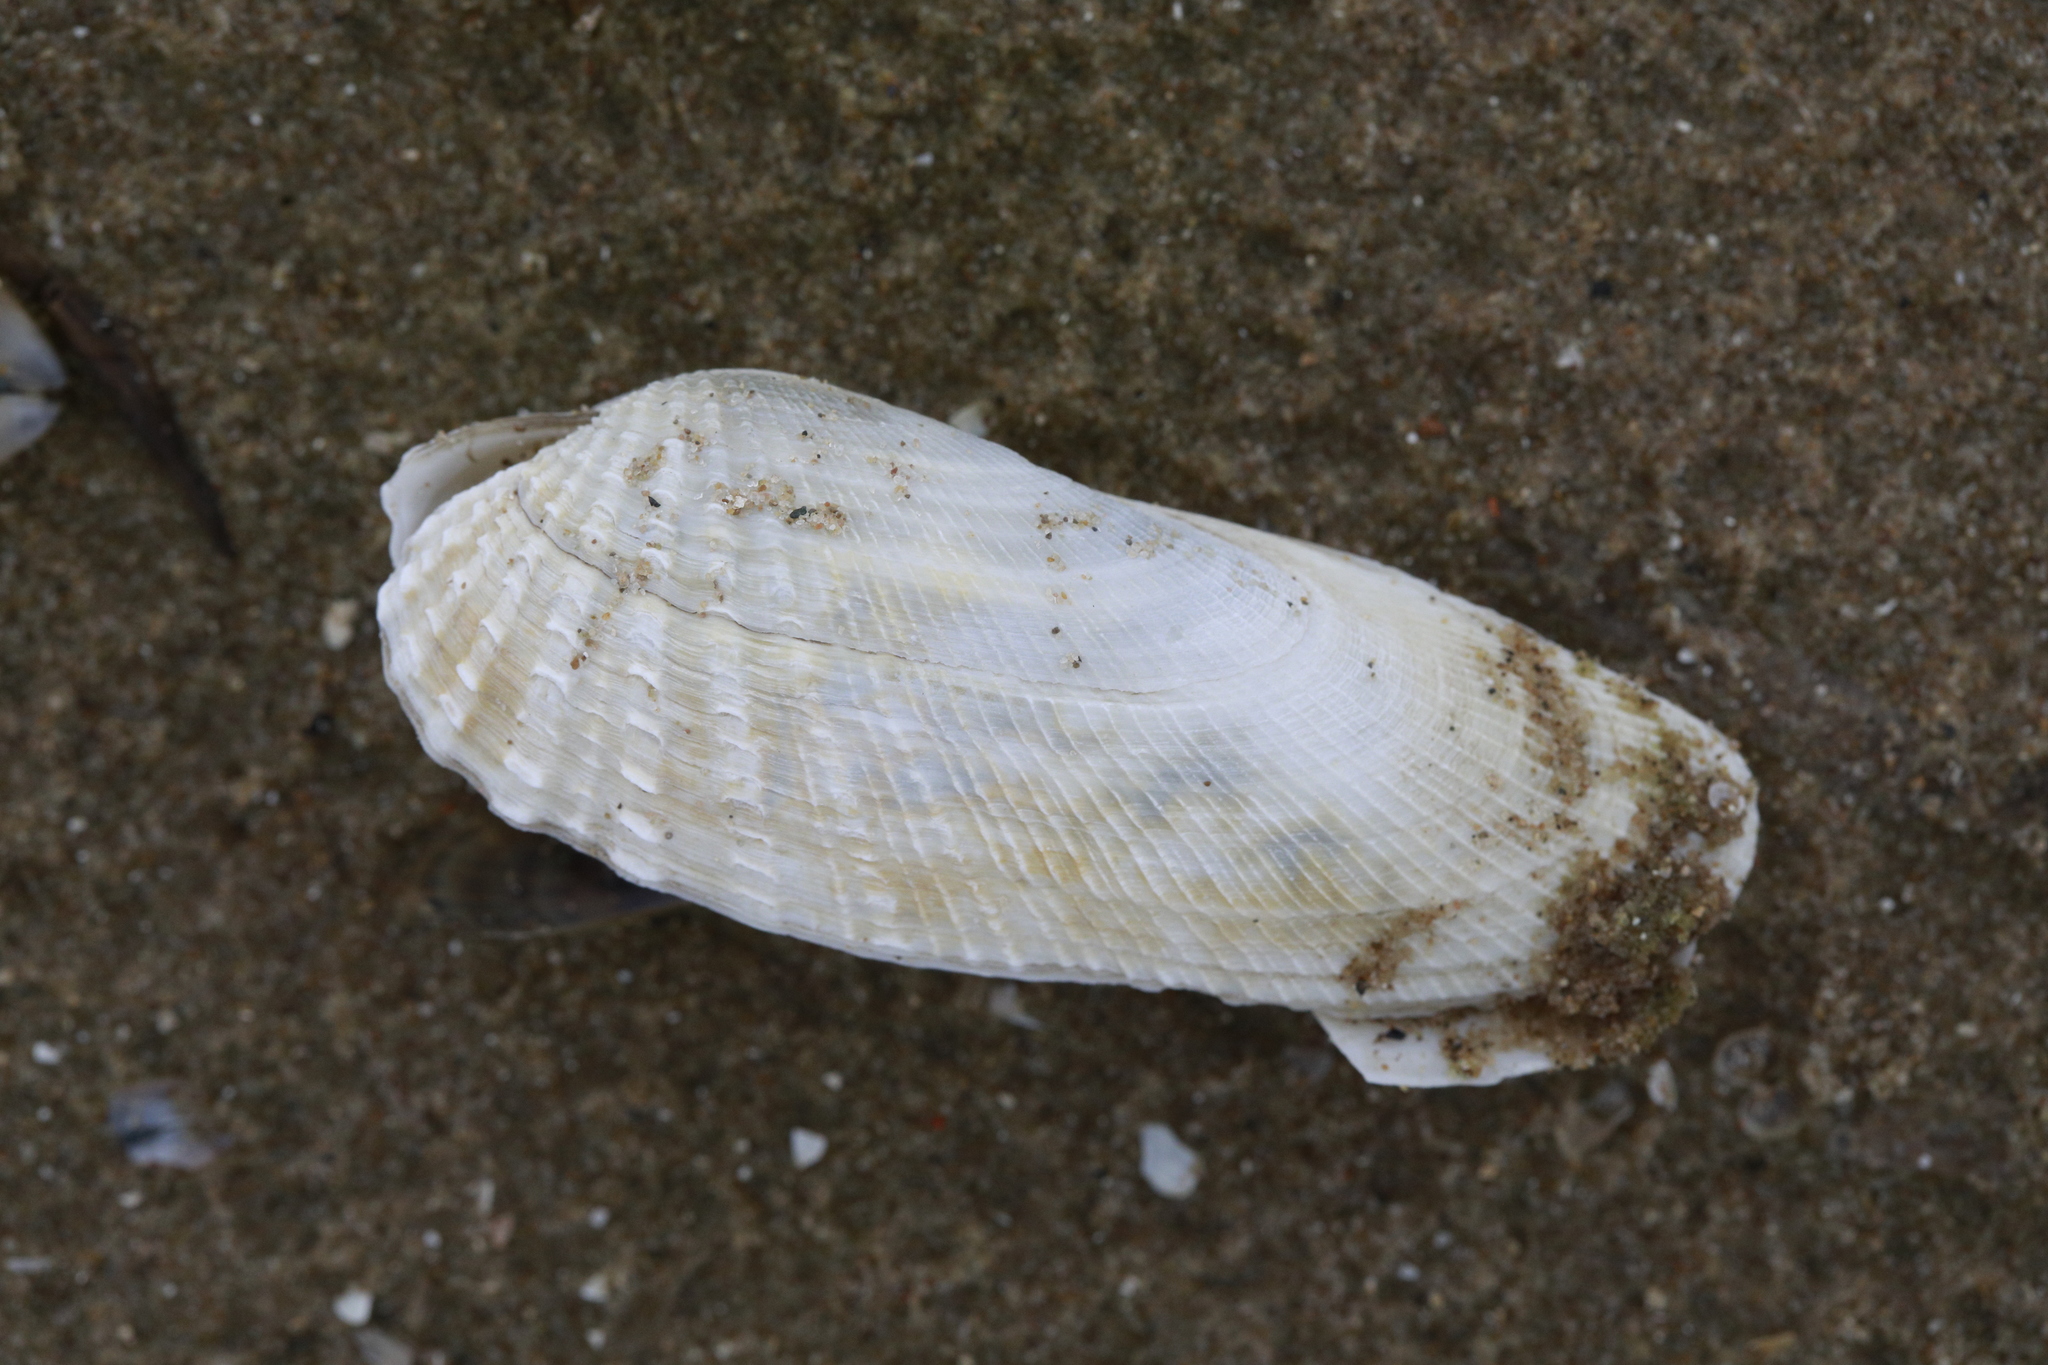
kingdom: Animalia
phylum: Mollusca
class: Bivalvia
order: Venerida
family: Veneridae
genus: Petricolaria
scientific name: Petricolaria pholadiformis
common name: American piddock
